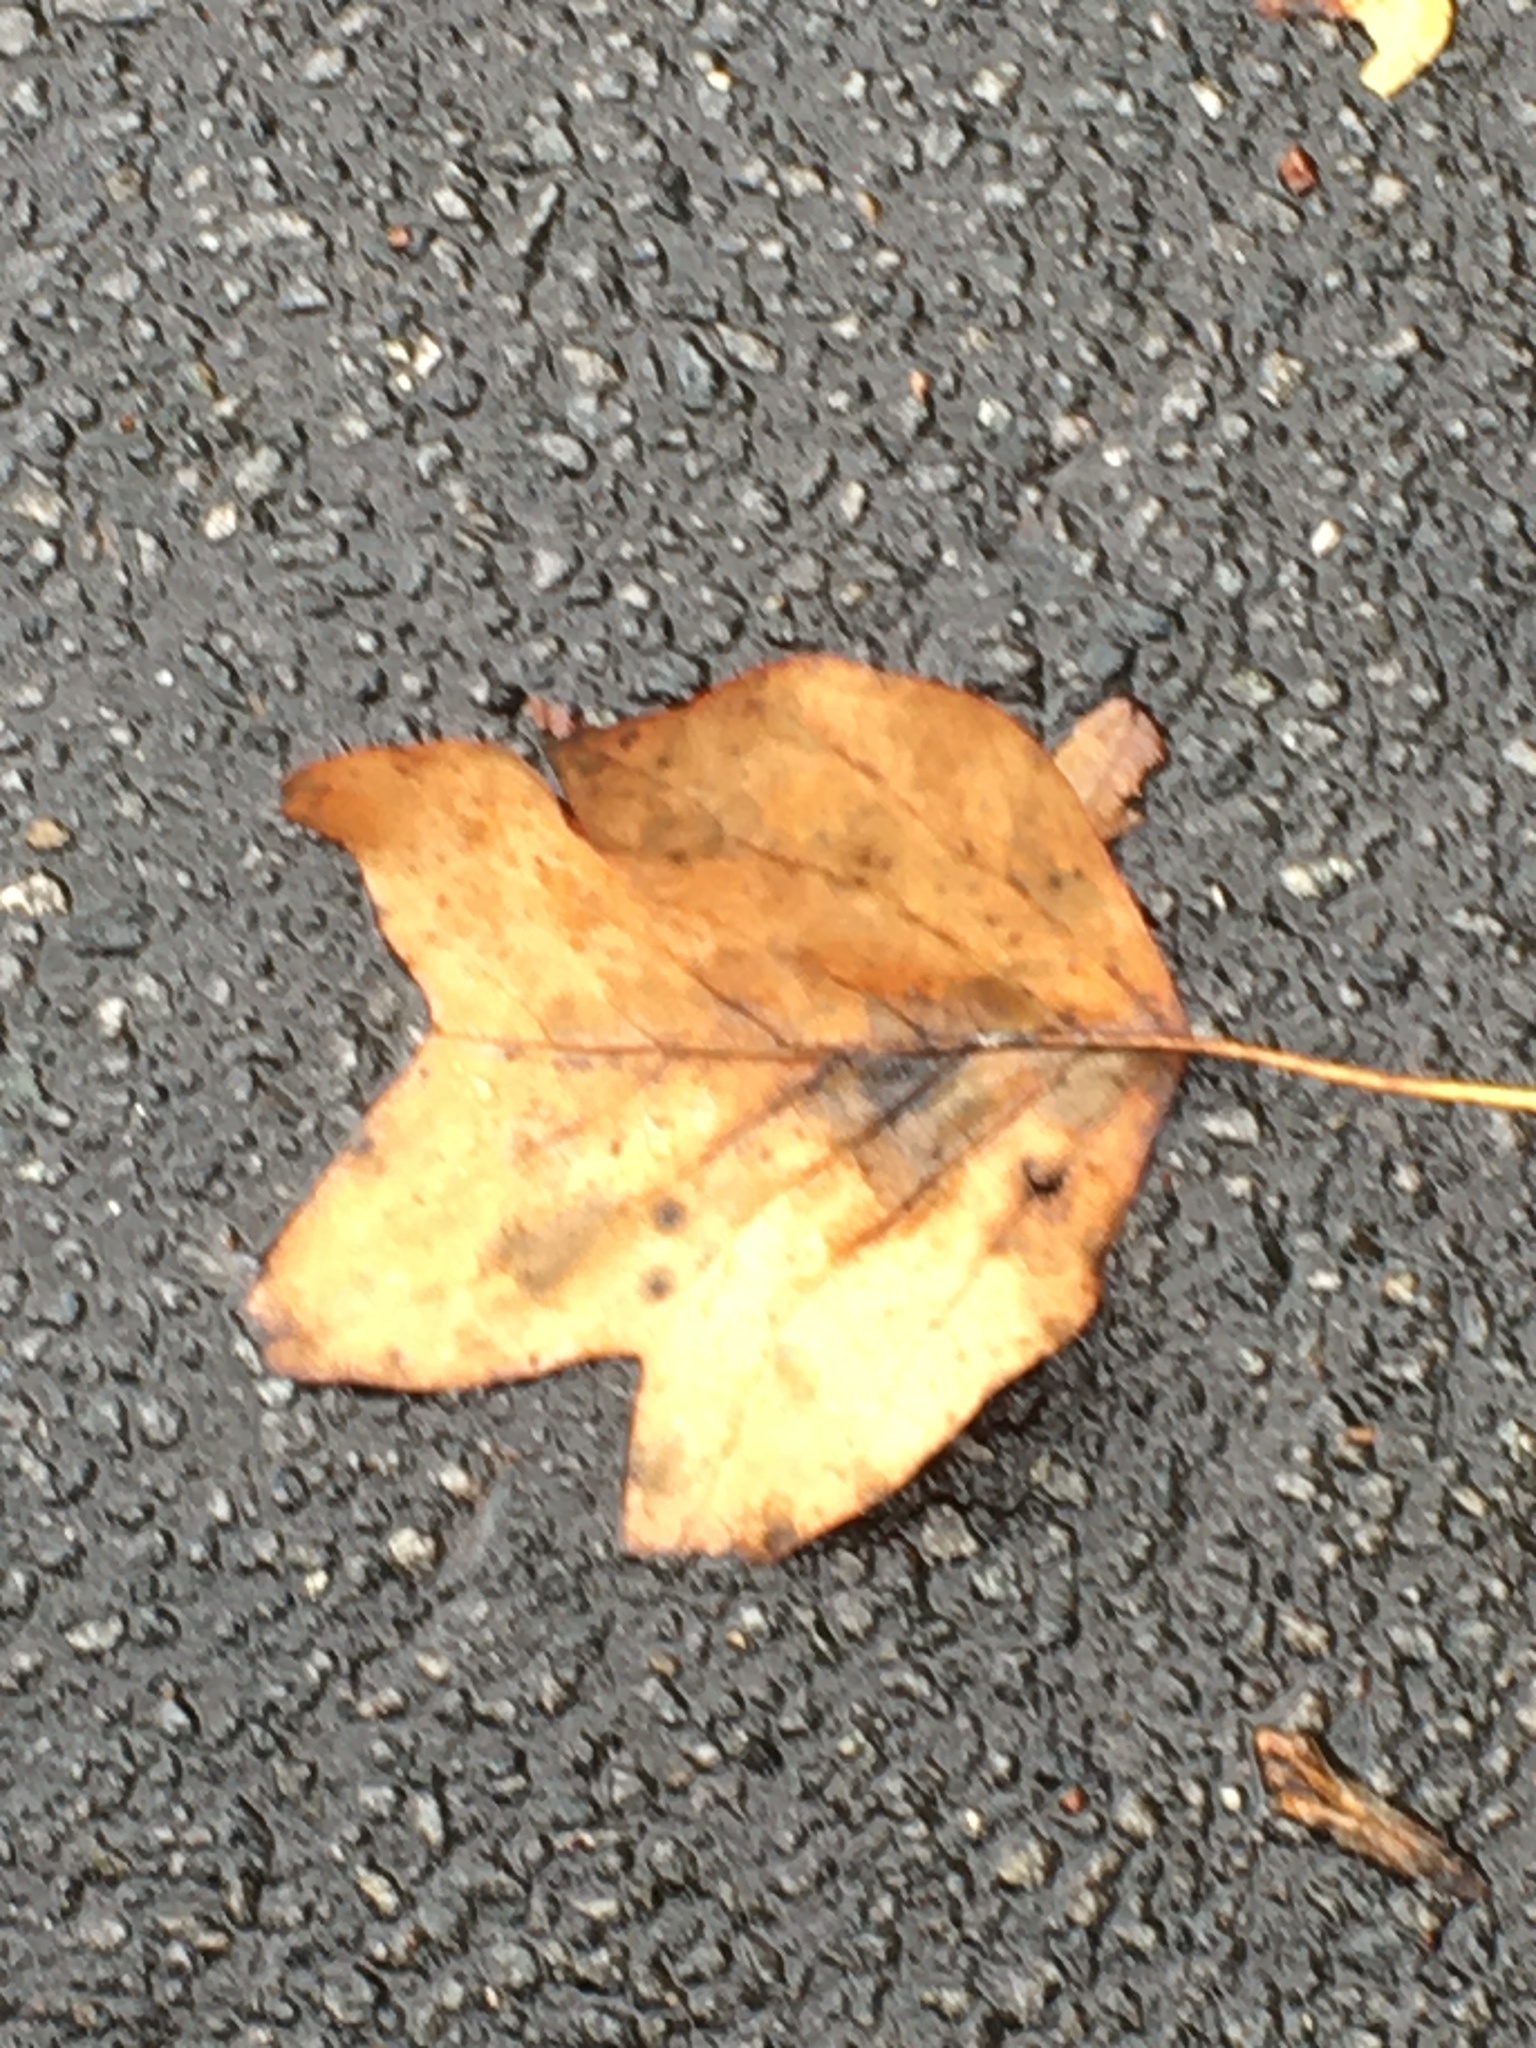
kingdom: Plantae
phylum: Tracheophyta
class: Magnoliopsida
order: Magnoliales
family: Magnoliaceae
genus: Liriodendron
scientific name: Liriodendron tulipifera
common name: Tulip tree
